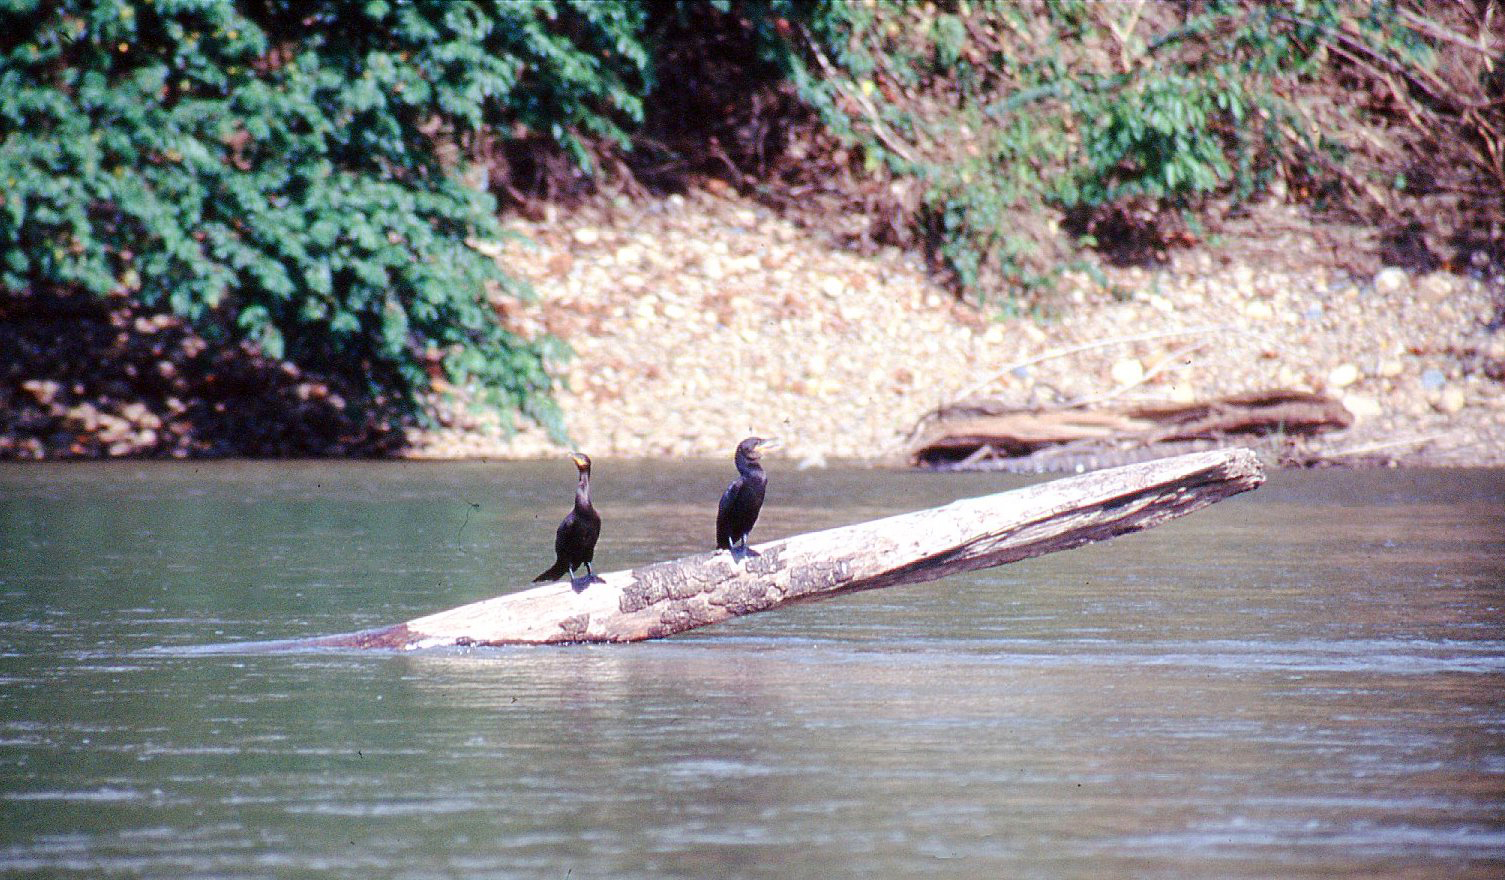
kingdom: Animalia
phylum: Chordata
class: Aves
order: Suliformes
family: Phalacrocoracidae
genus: Phalacrocorax
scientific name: Phalacrocorax brasilianus
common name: Neotropic cormorant
